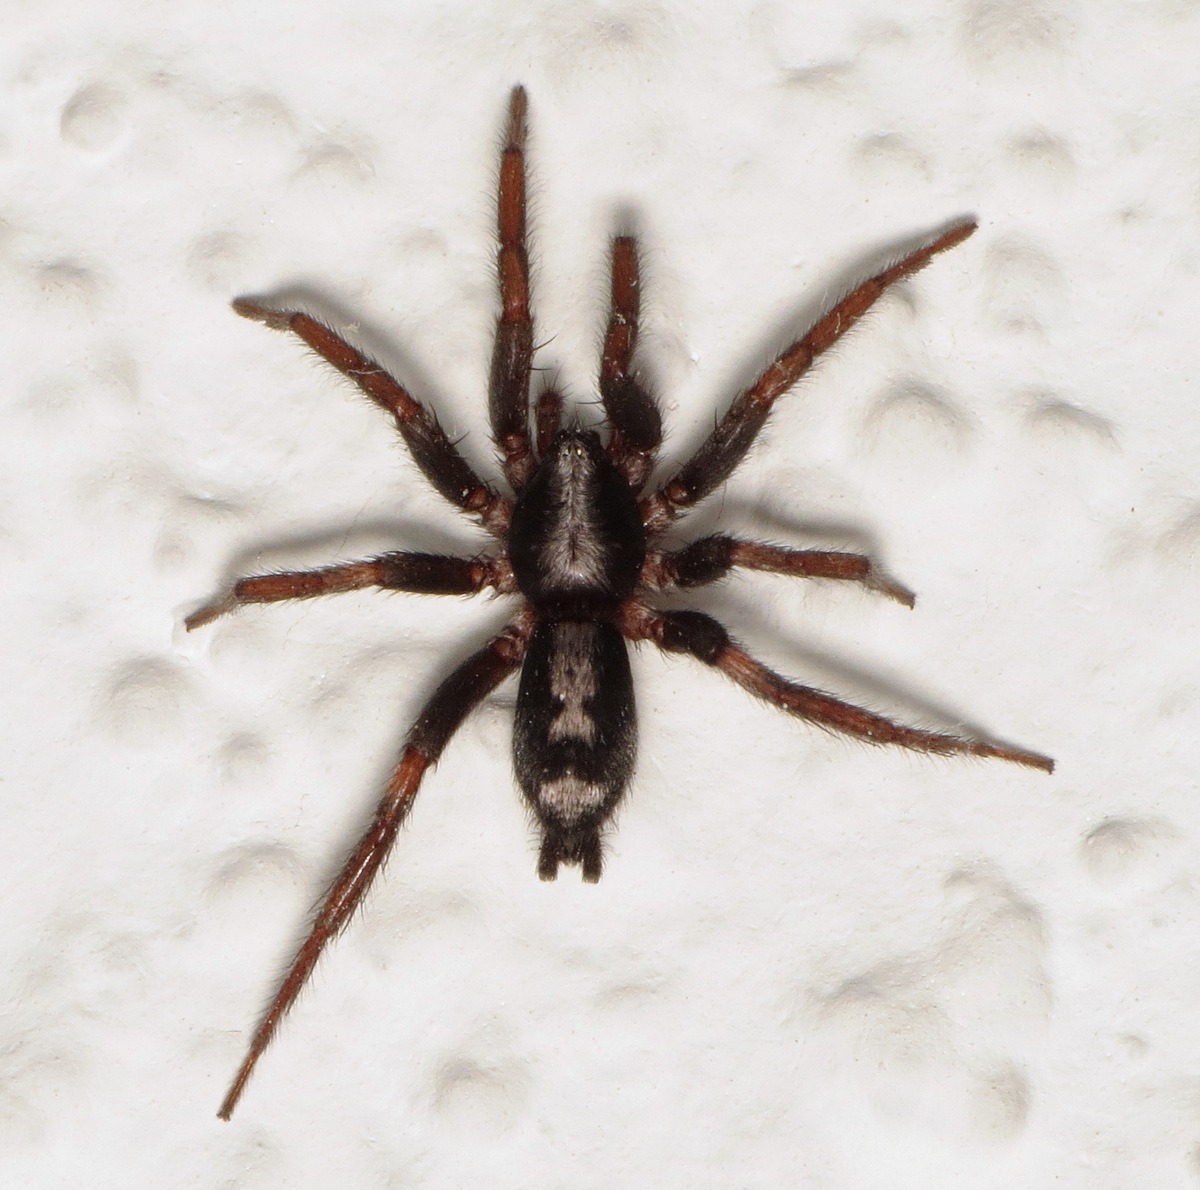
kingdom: Animalia
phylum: Arthropoda
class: Arachnida
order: Araneae
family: Gnaphosidae
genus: Herpyllus
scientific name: Herpyllus ecclesiasticus
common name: Eastern parson spider
